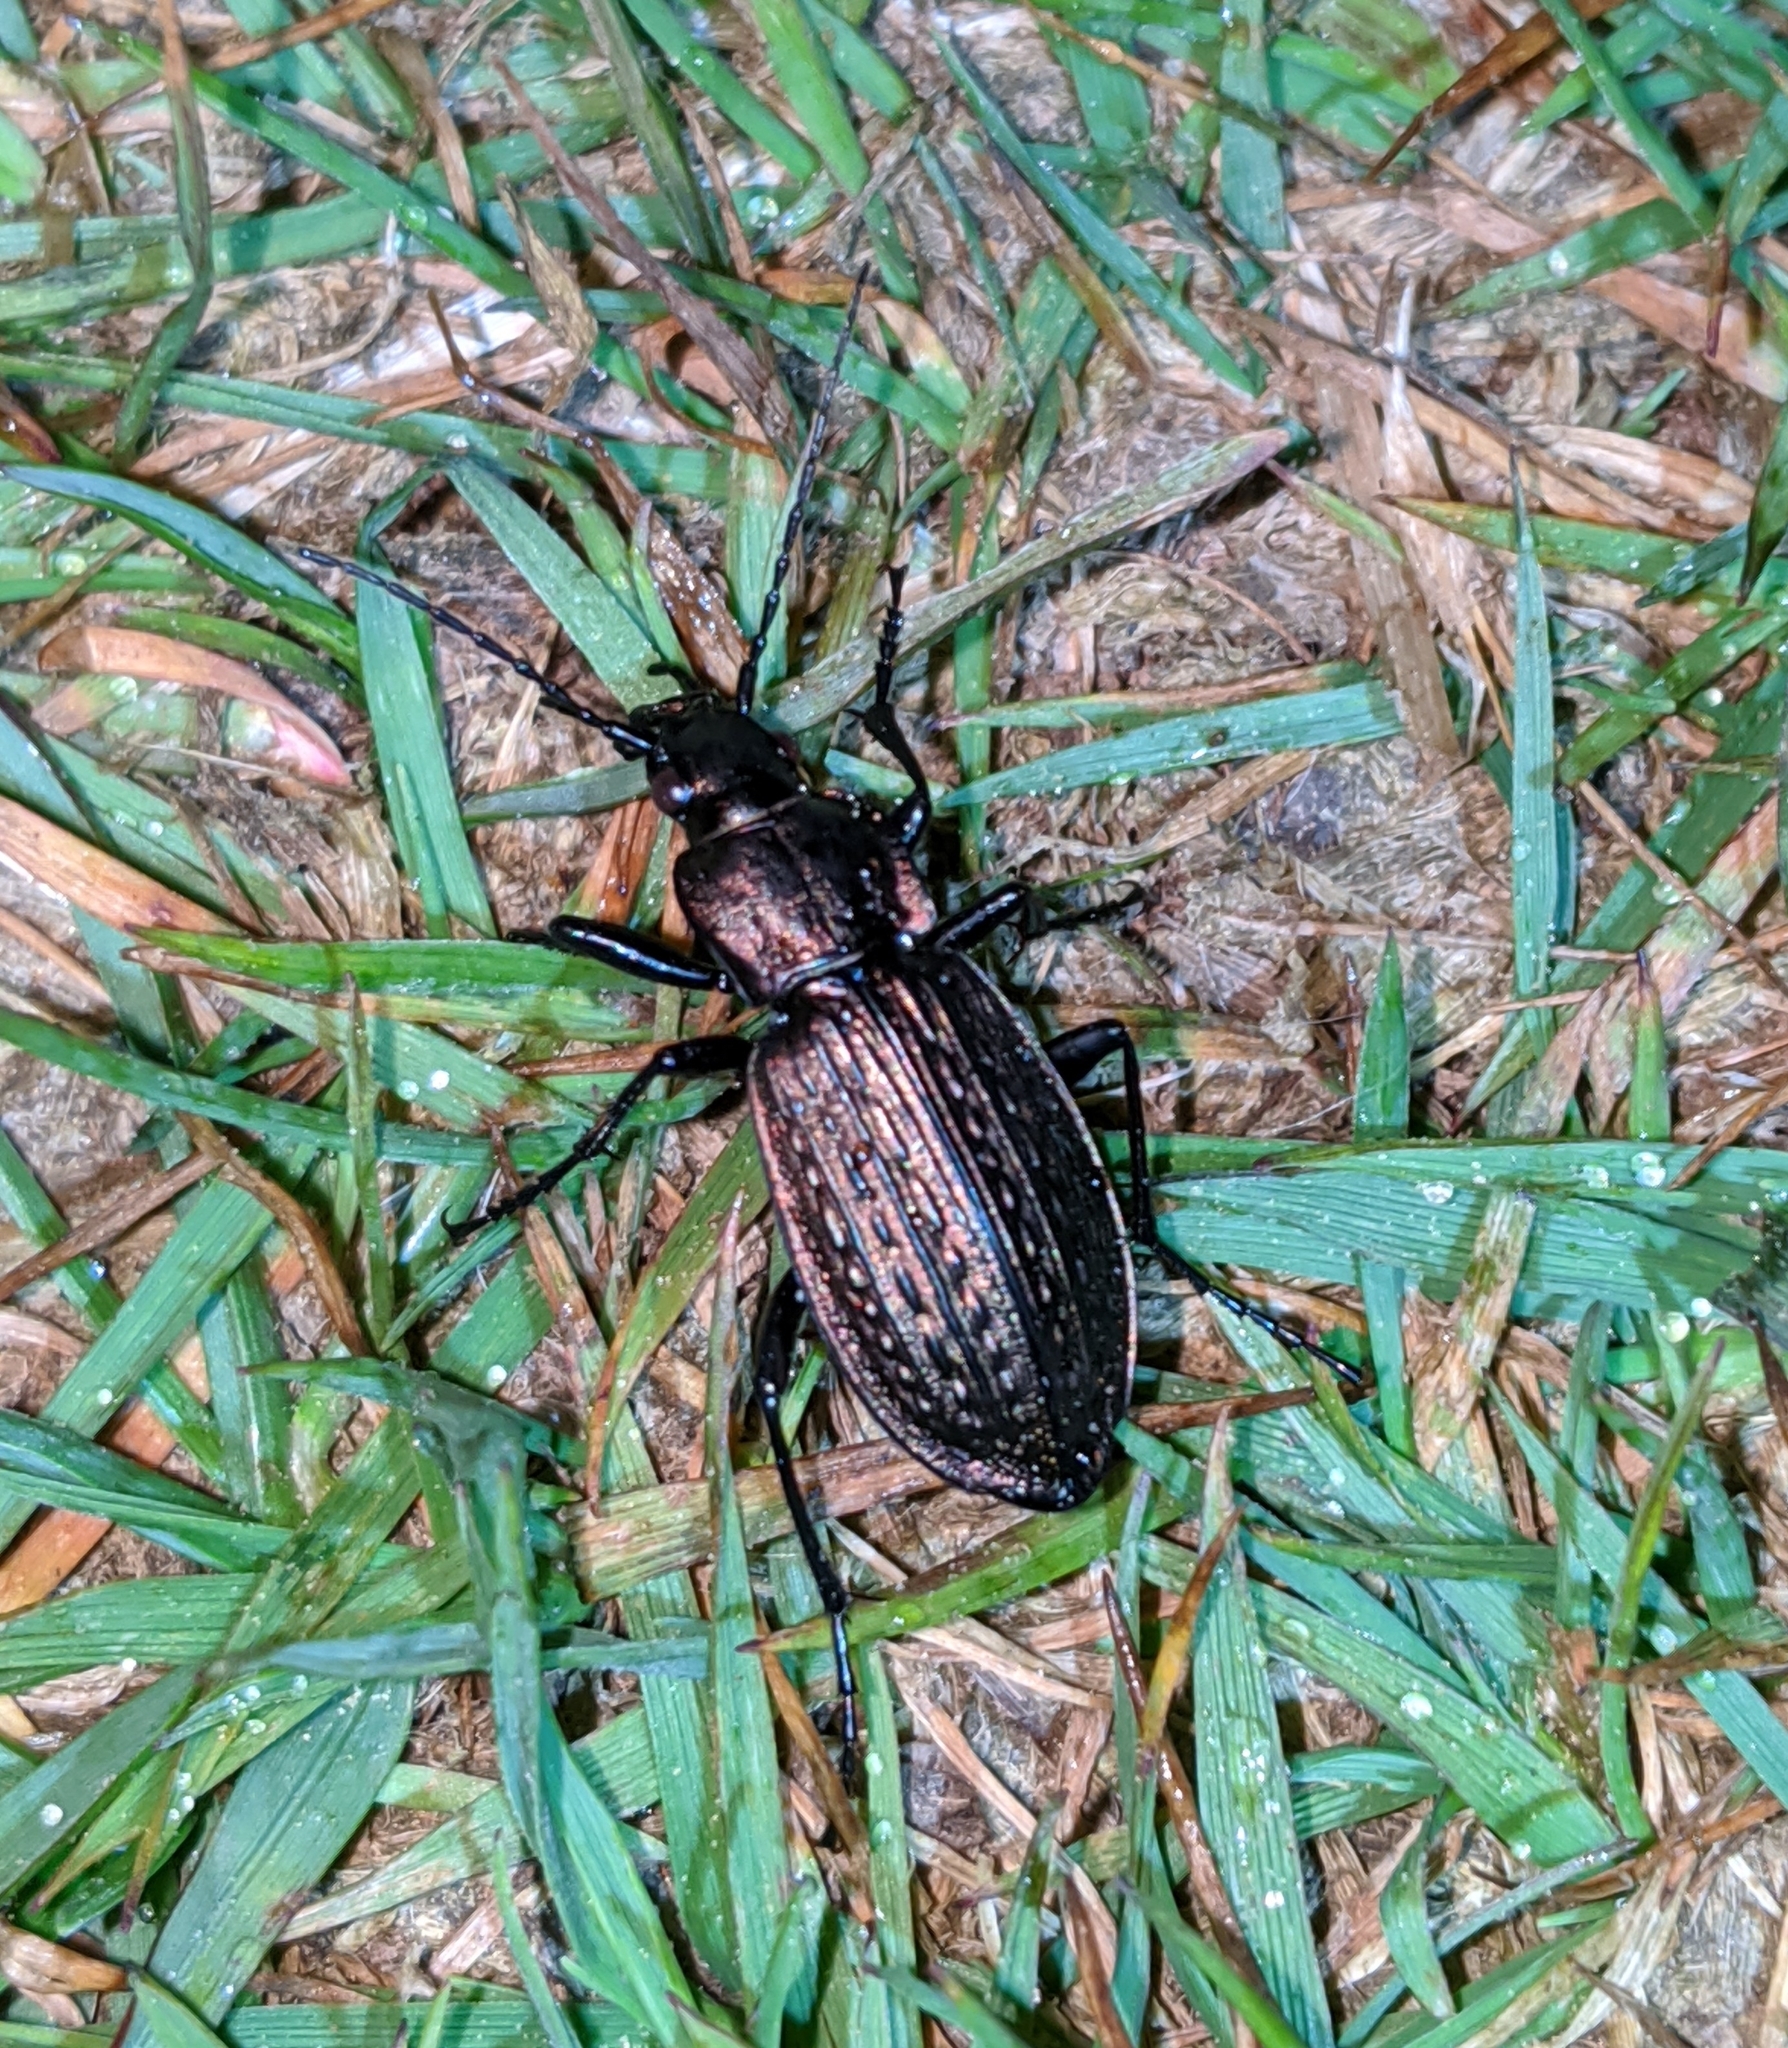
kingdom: Animalia
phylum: Arthropoda
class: Insecta
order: Coleoptera
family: Carabidae
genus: Carabus
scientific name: Carabus granulatus
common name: Granulate ground beetle
